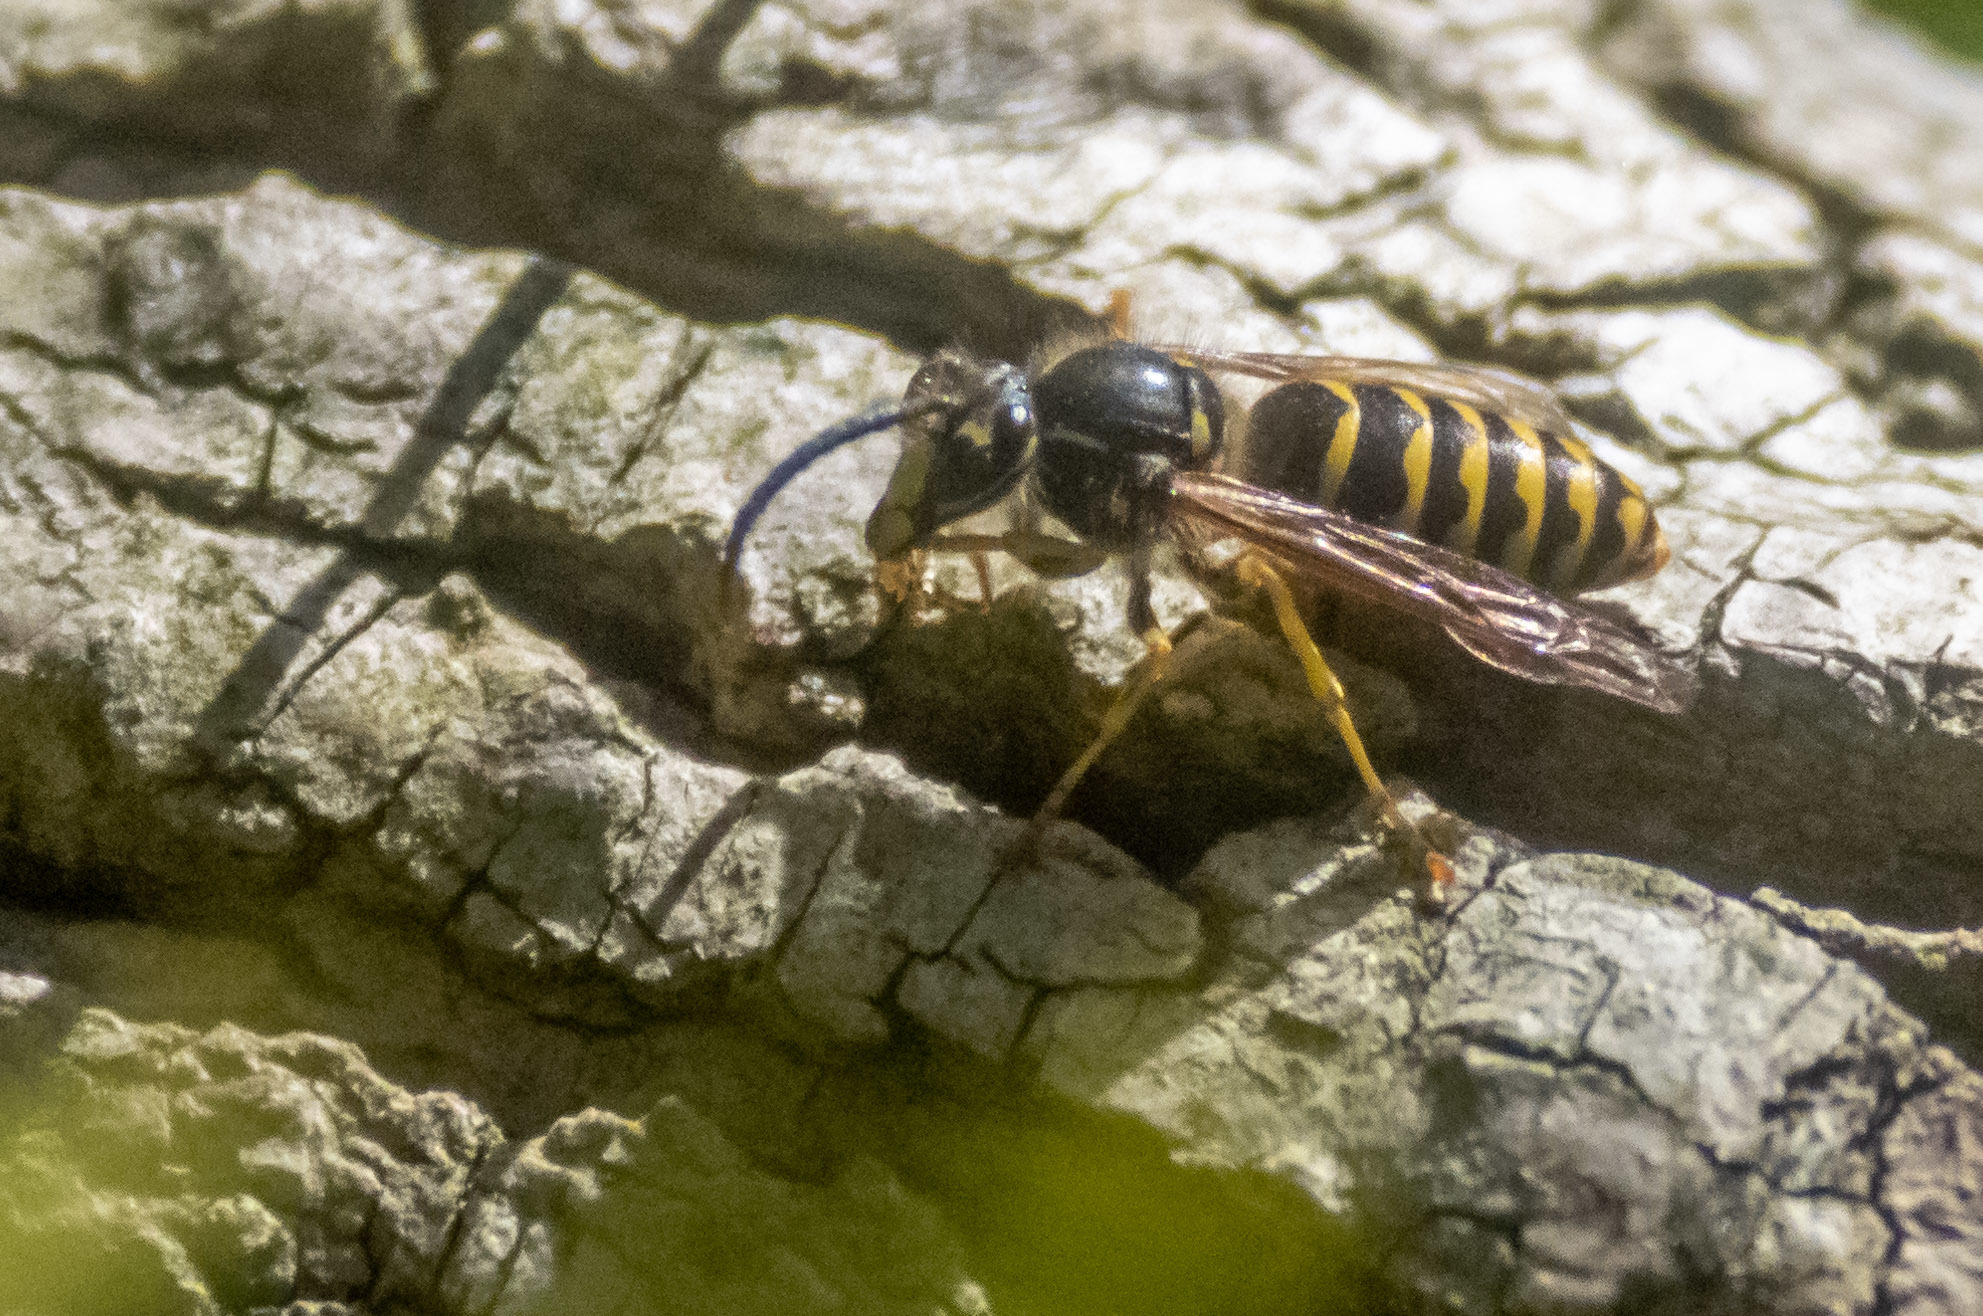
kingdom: Animalia
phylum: Arthropoda
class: Insecta
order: Hymenoptera
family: Vespidae
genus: Dolichovespula
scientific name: Dolichovespula arenaria
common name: Aerial yellowjacket
